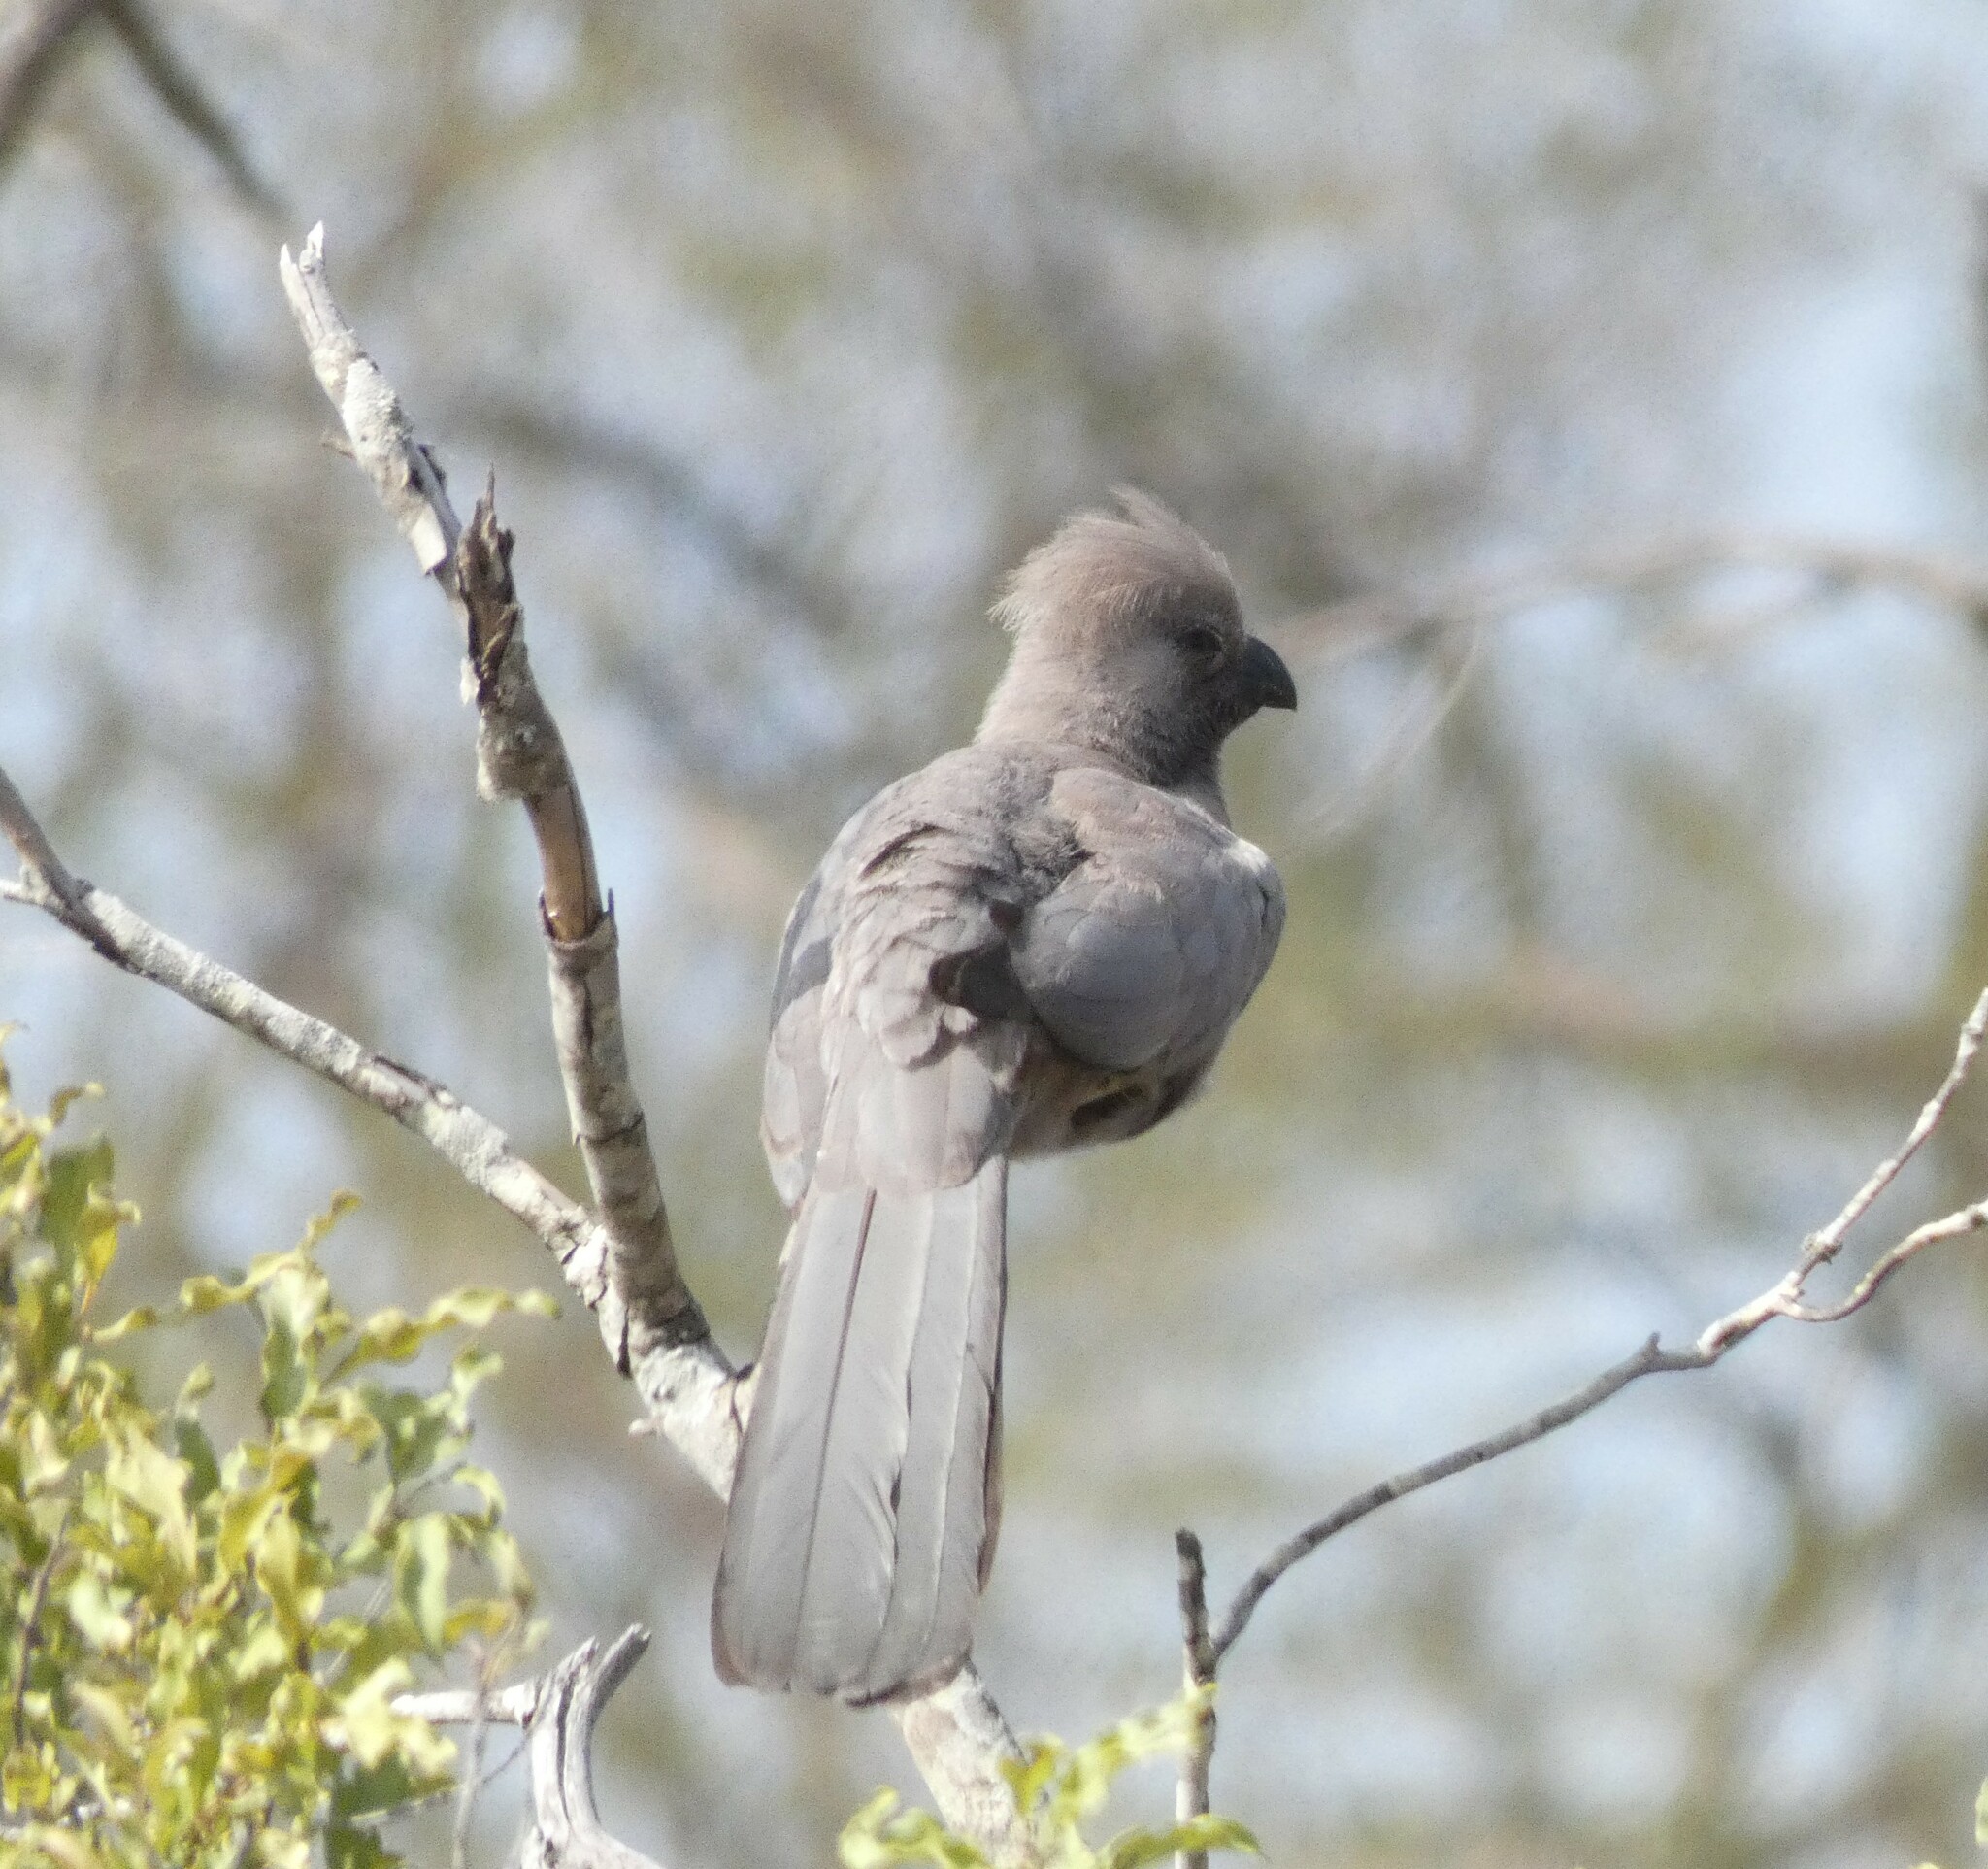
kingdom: Animalia
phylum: Chordata
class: Aves
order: Musophagiformes
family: Musophagidae
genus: Corythaixoides
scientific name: Corythaixoides concolor
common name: Grey go-away-bird
